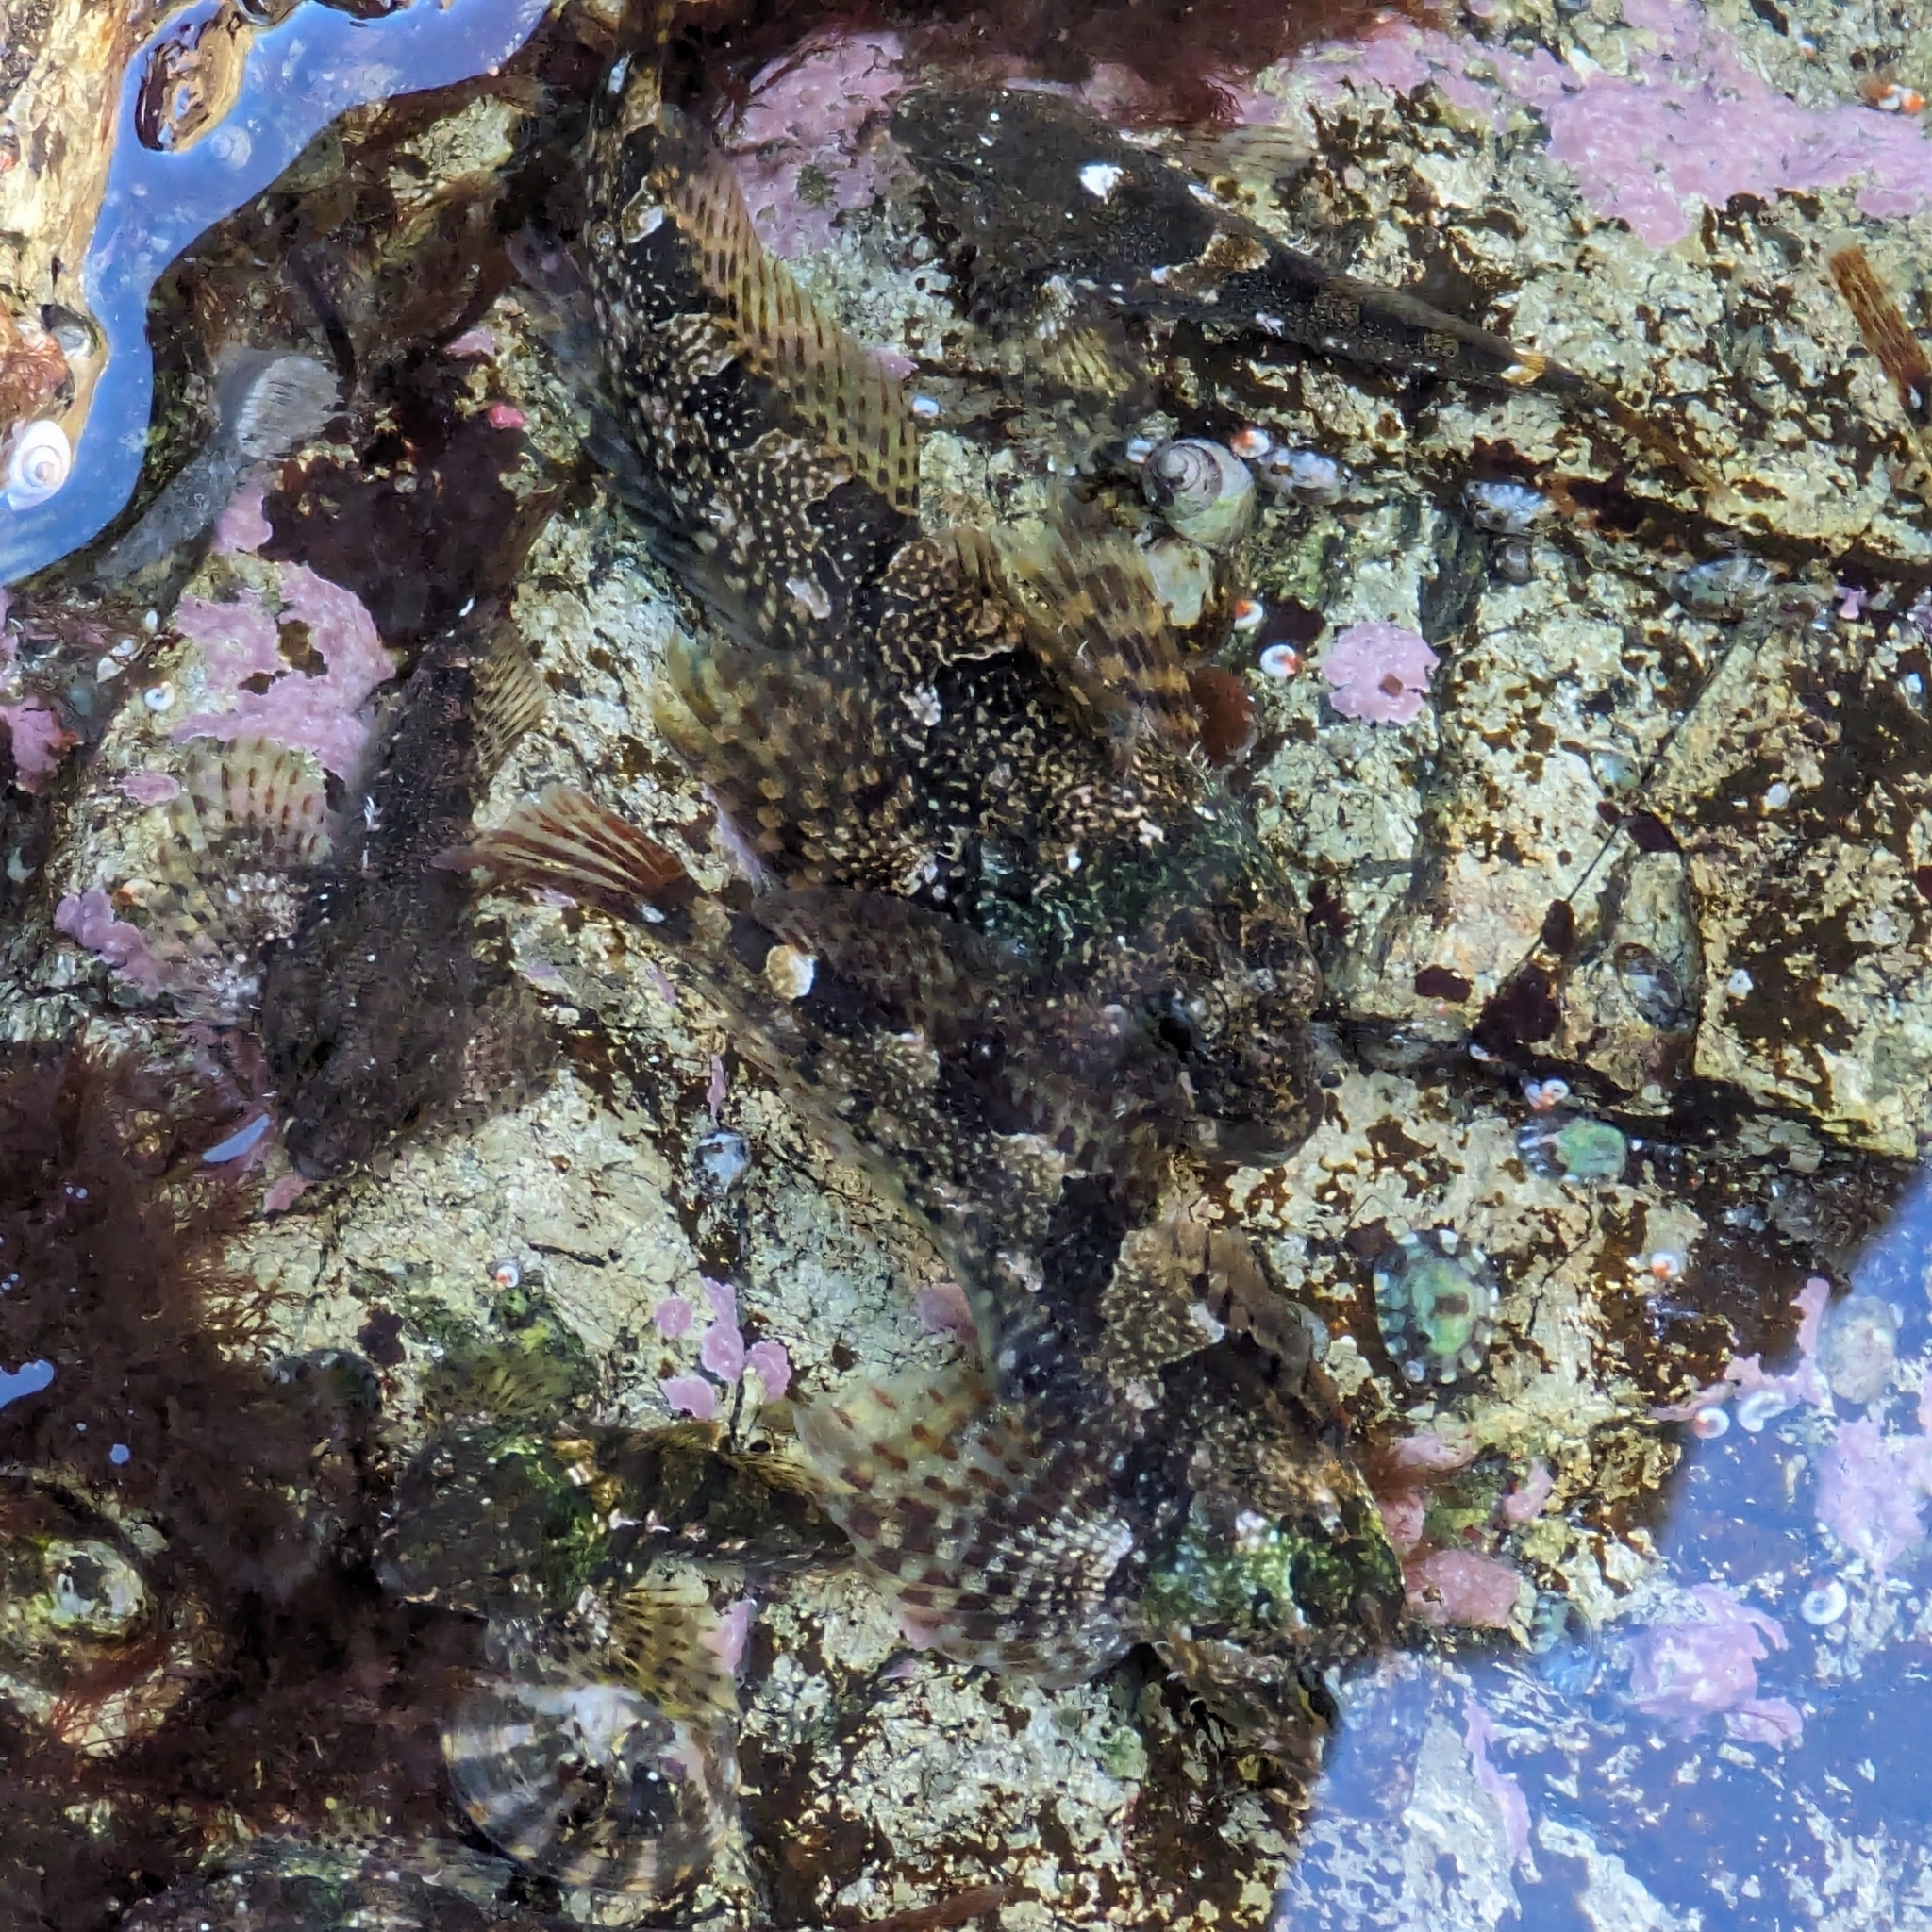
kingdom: Animalia
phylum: Chordata
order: Scorpaeniformes
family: Cottidae
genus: Oligocottus
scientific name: Oligocottus maculosus
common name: Tidepool sculpin
